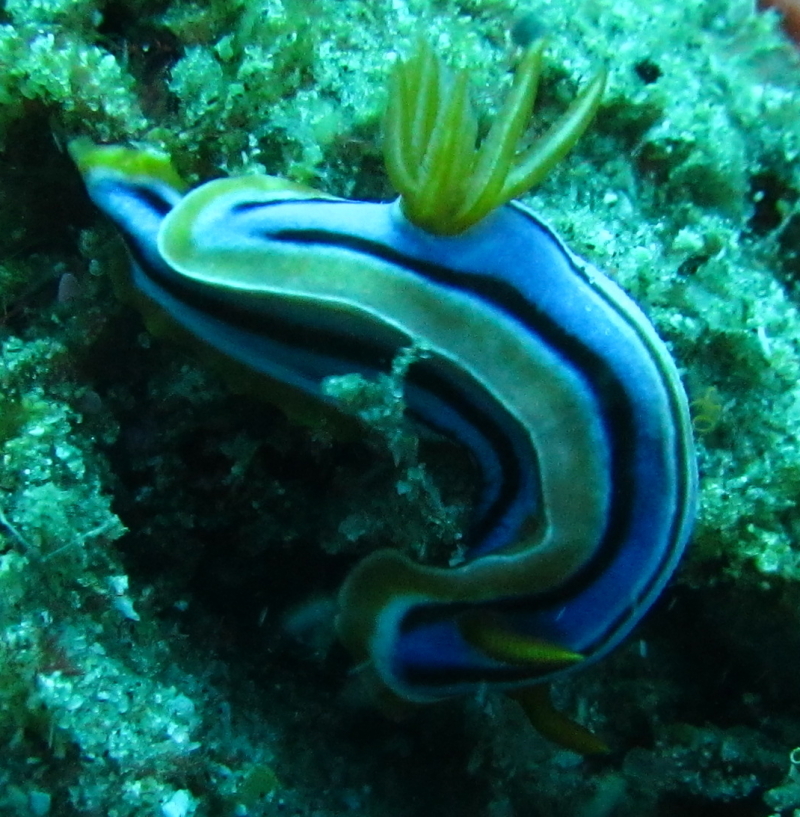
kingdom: Animalia
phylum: Mollusca
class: Gastropoda
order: Nudibranchia
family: Chromodorididae
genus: Chromodoris
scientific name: Chromodoris hamiltoni
